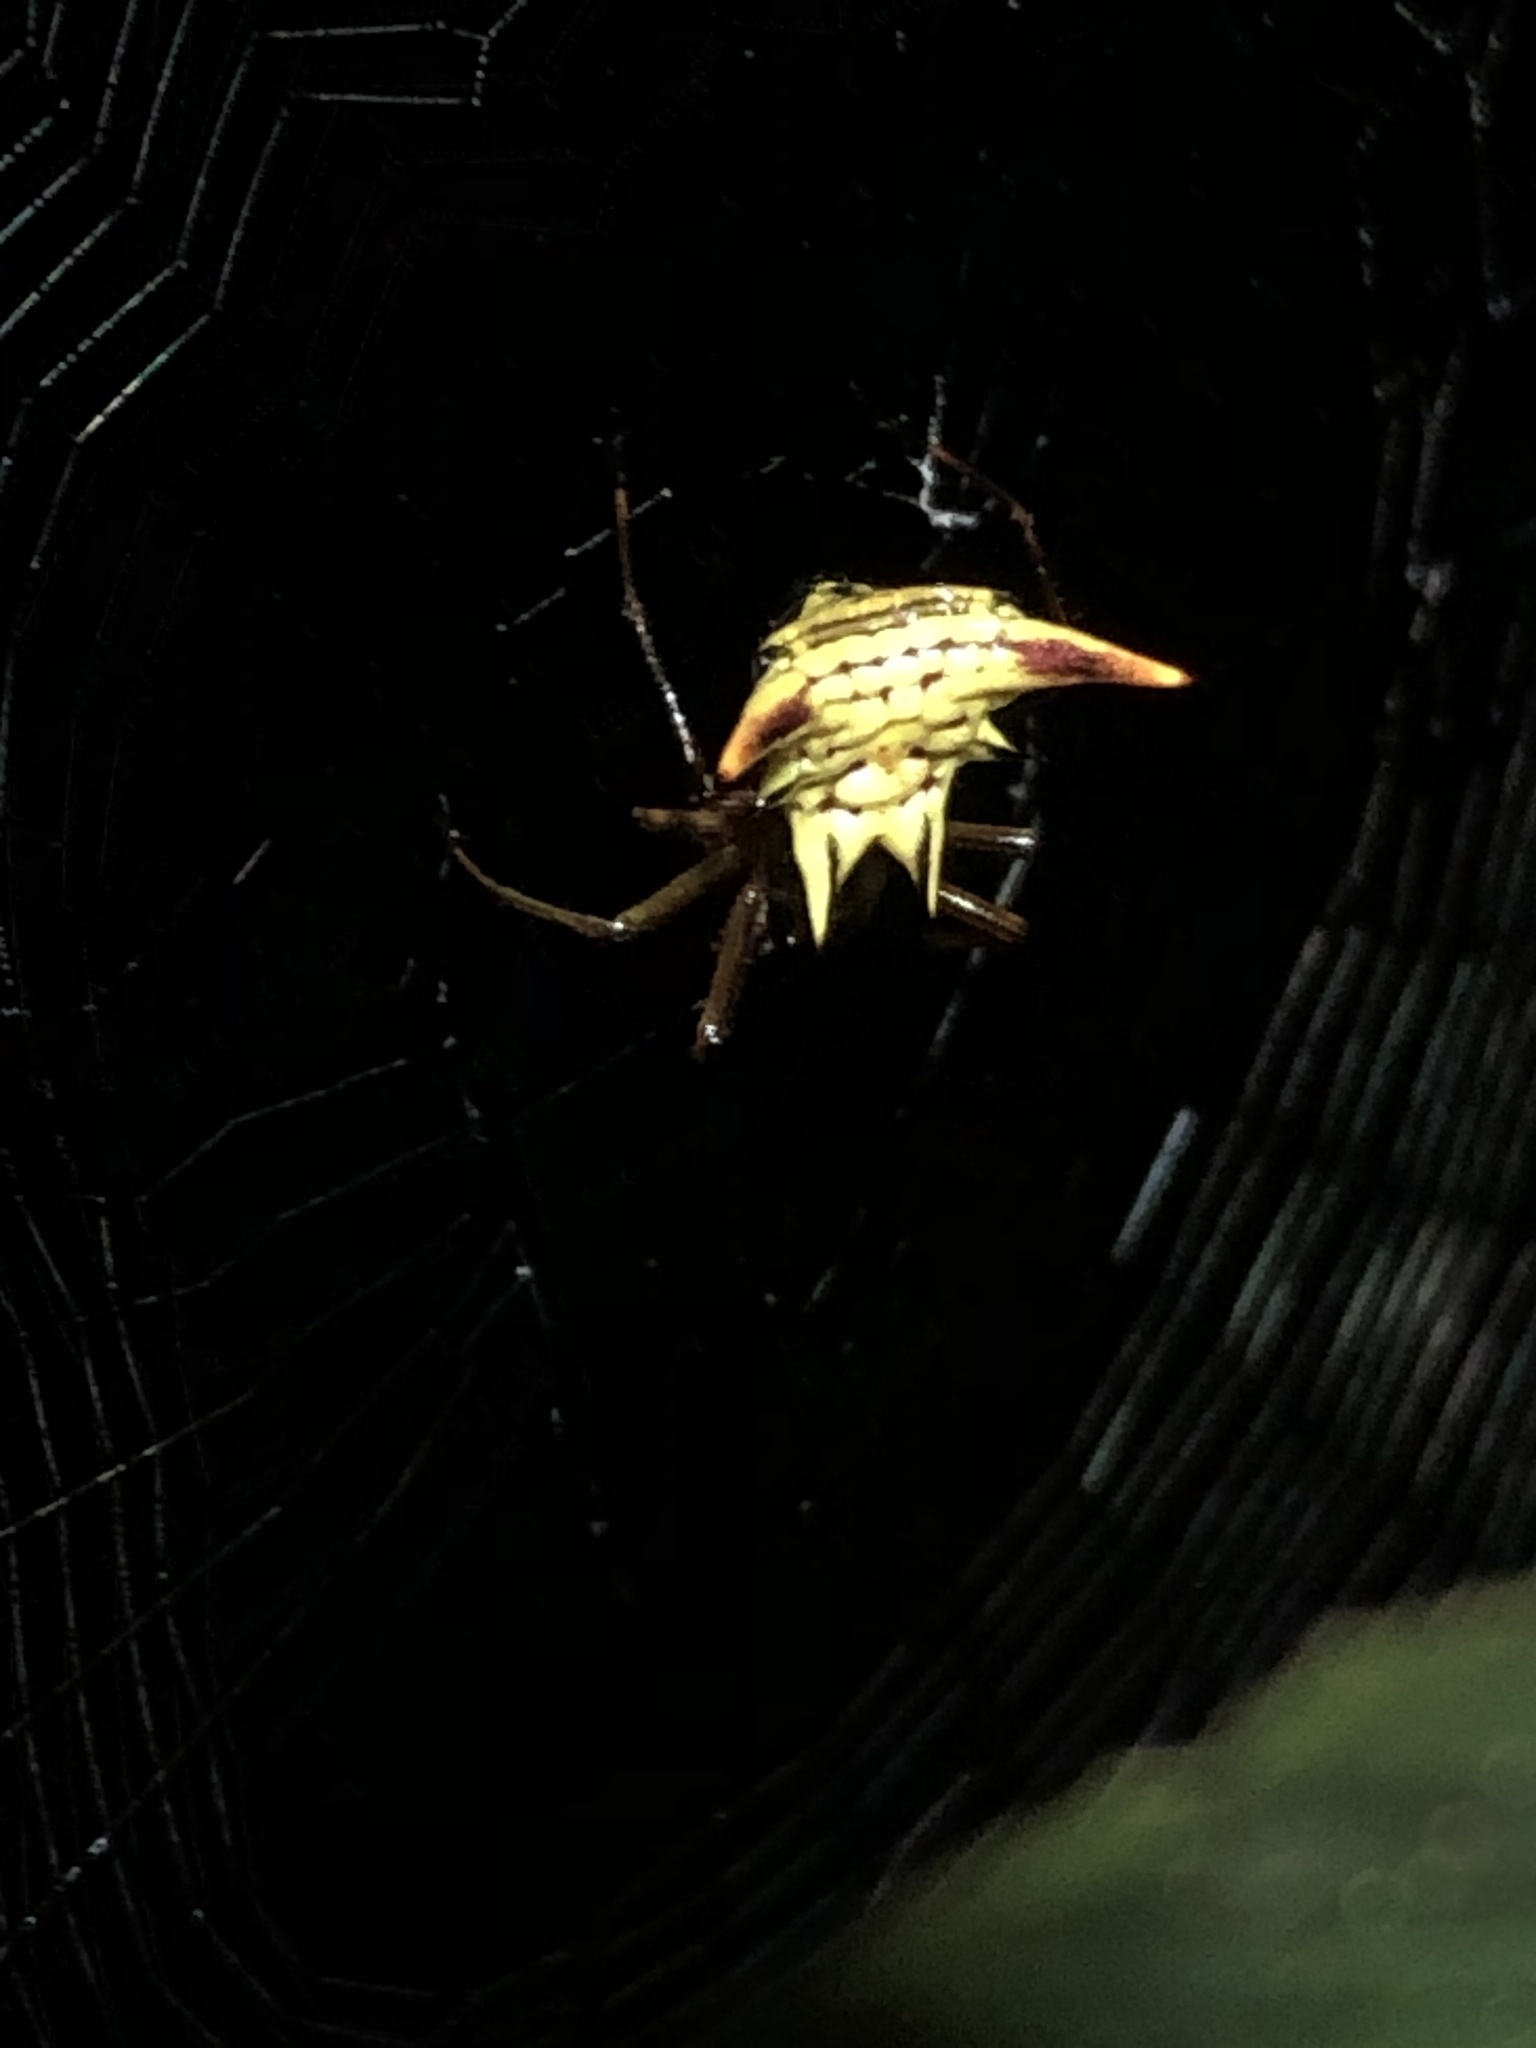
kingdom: Animalia
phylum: Arthropoda
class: Arachnida
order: Araneae
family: Araneidae
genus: Micrathena
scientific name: Micrathena acuta
